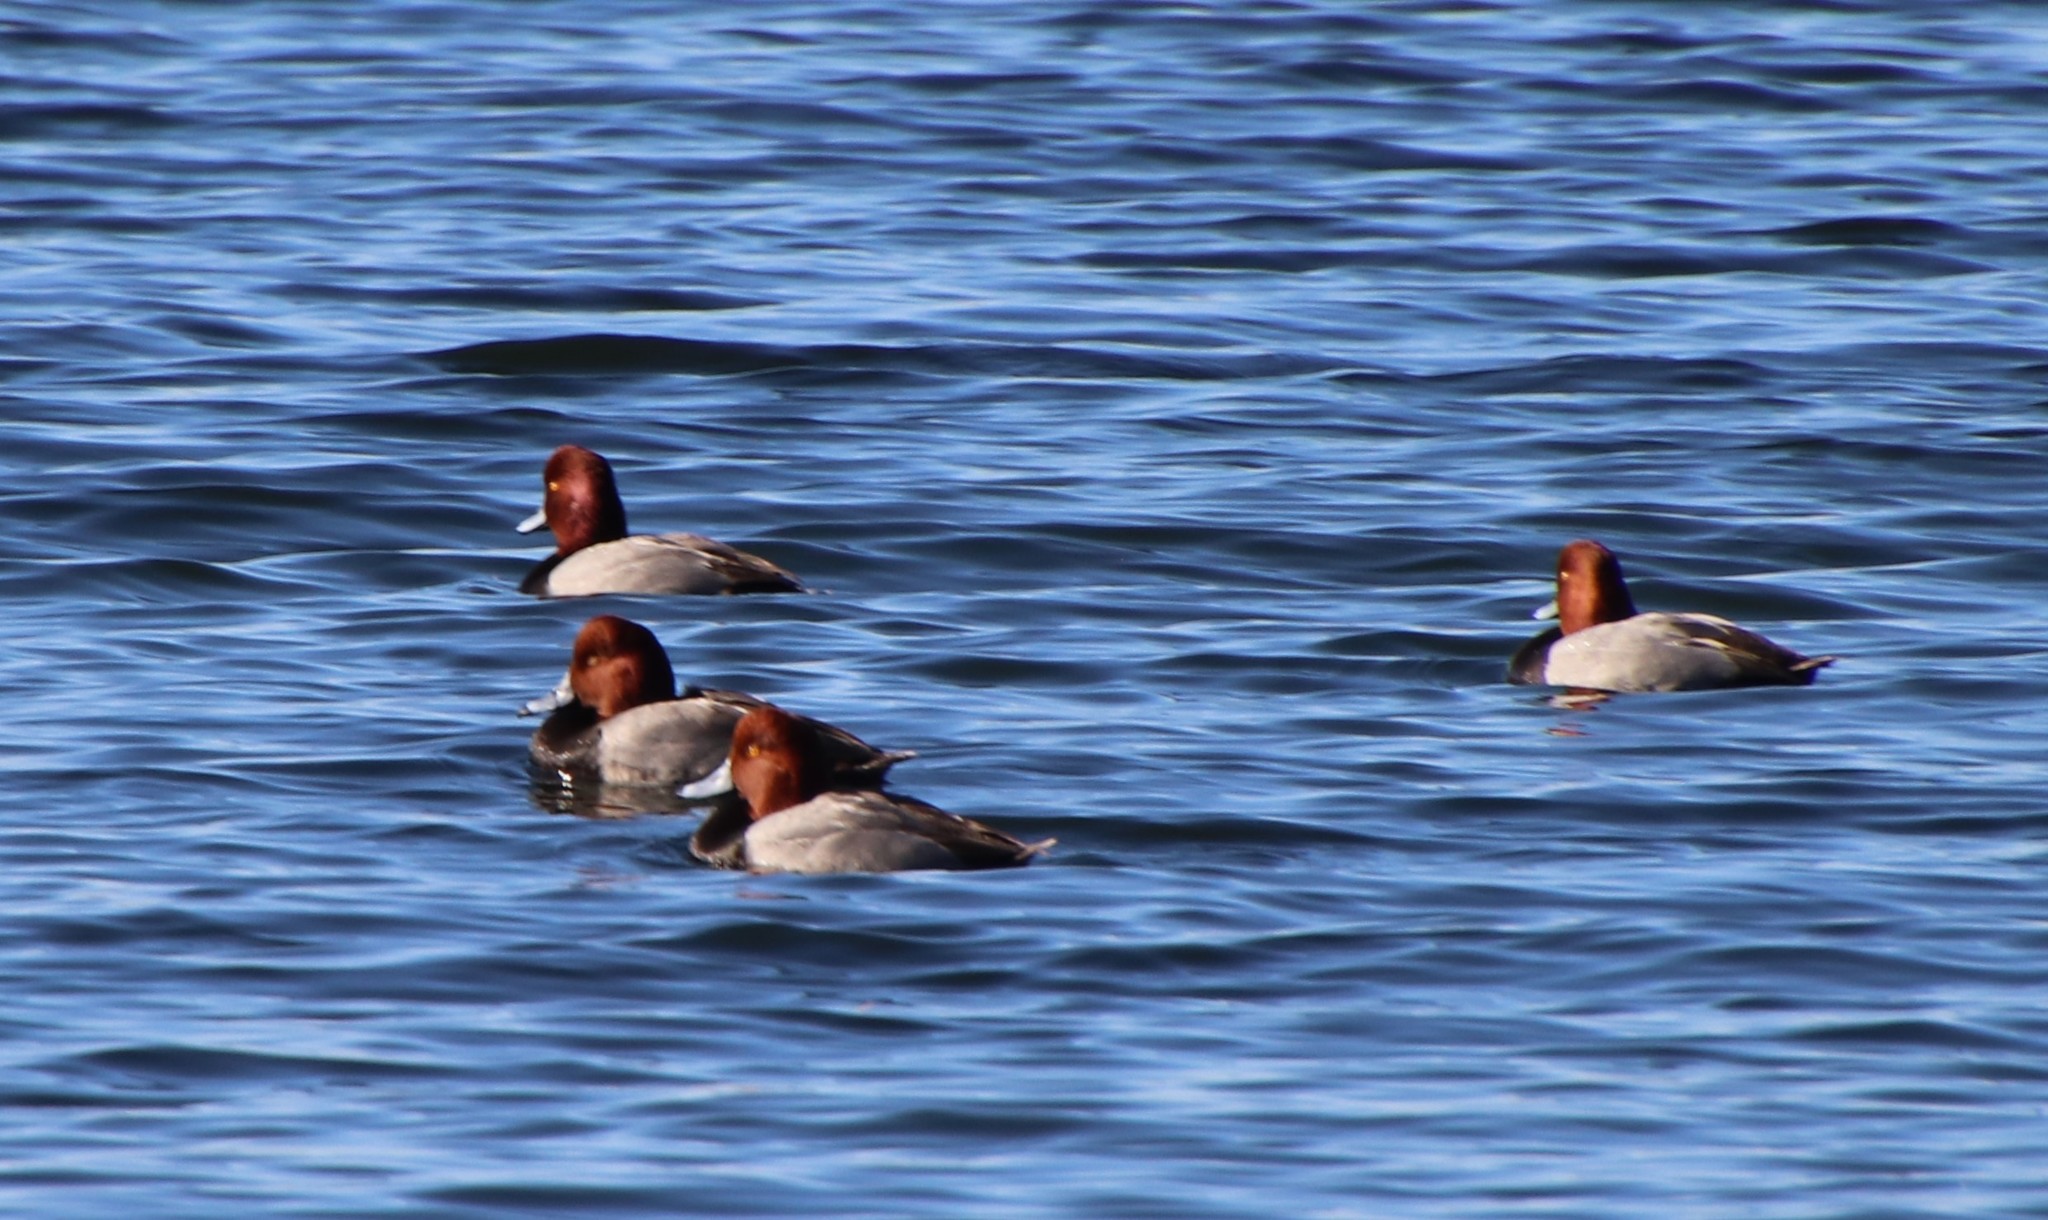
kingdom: Animalia
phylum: Chordata
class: Aves
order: Anseriformes
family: Anatidae
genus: Aythya
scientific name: Aythya americana
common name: Redhead
